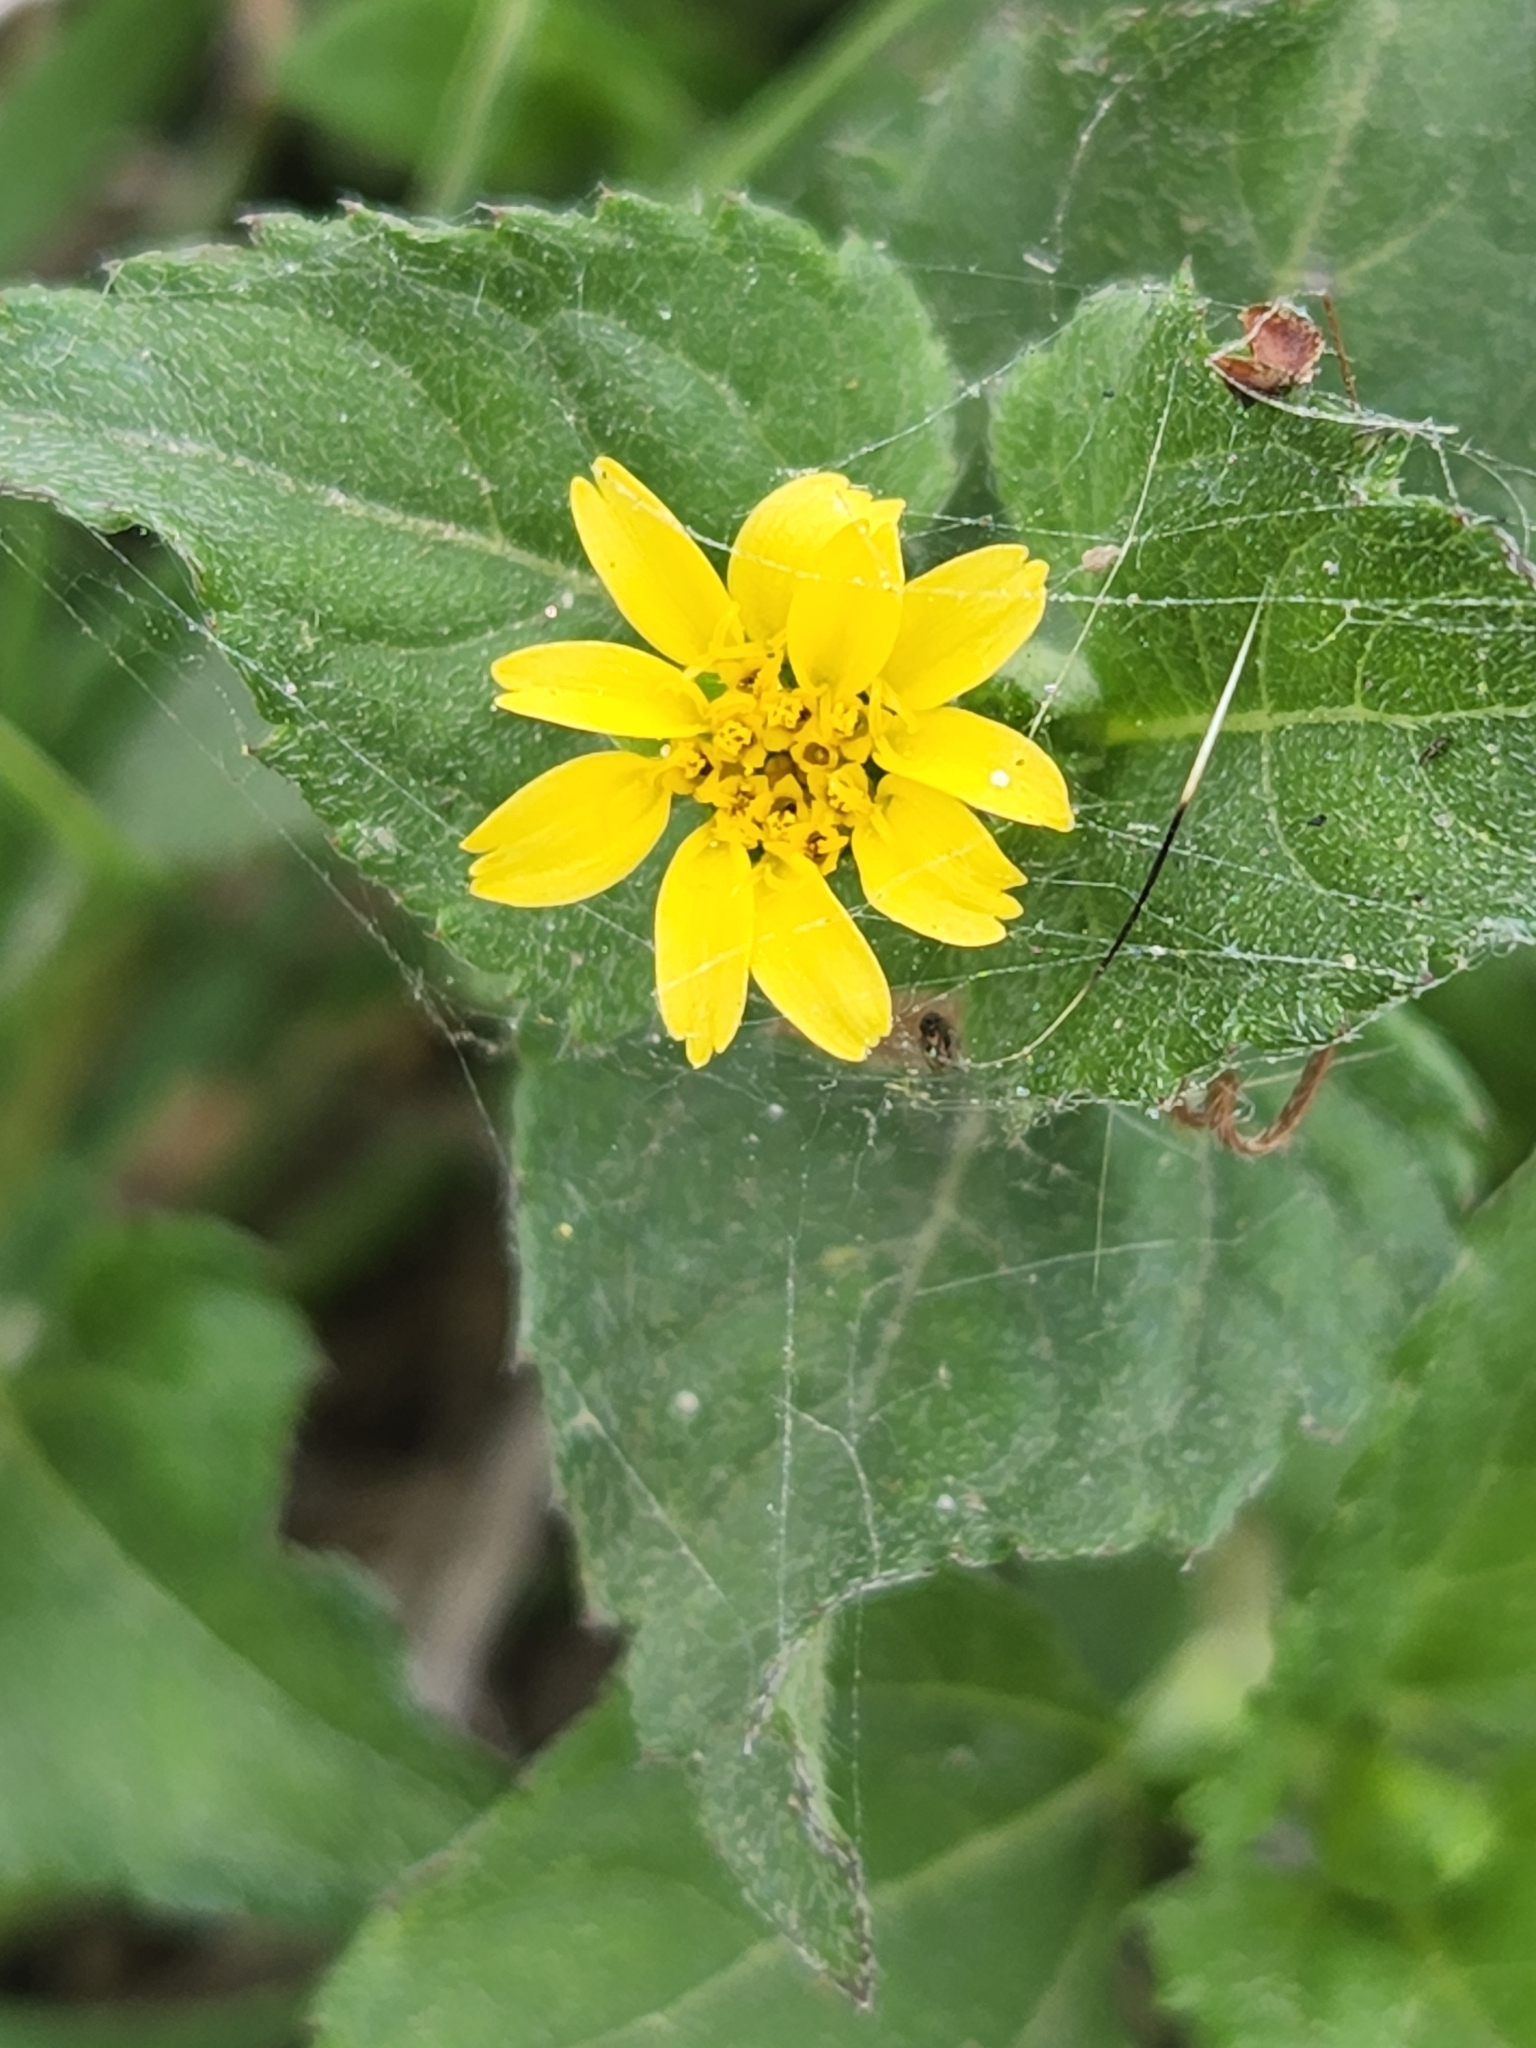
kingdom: Plantae
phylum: Tracheophyta
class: Magnoliopsida
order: Asterales
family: Asteraceae
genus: Calyptocarpus
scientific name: Calyptocarpus vialis
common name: Straggler daisy
